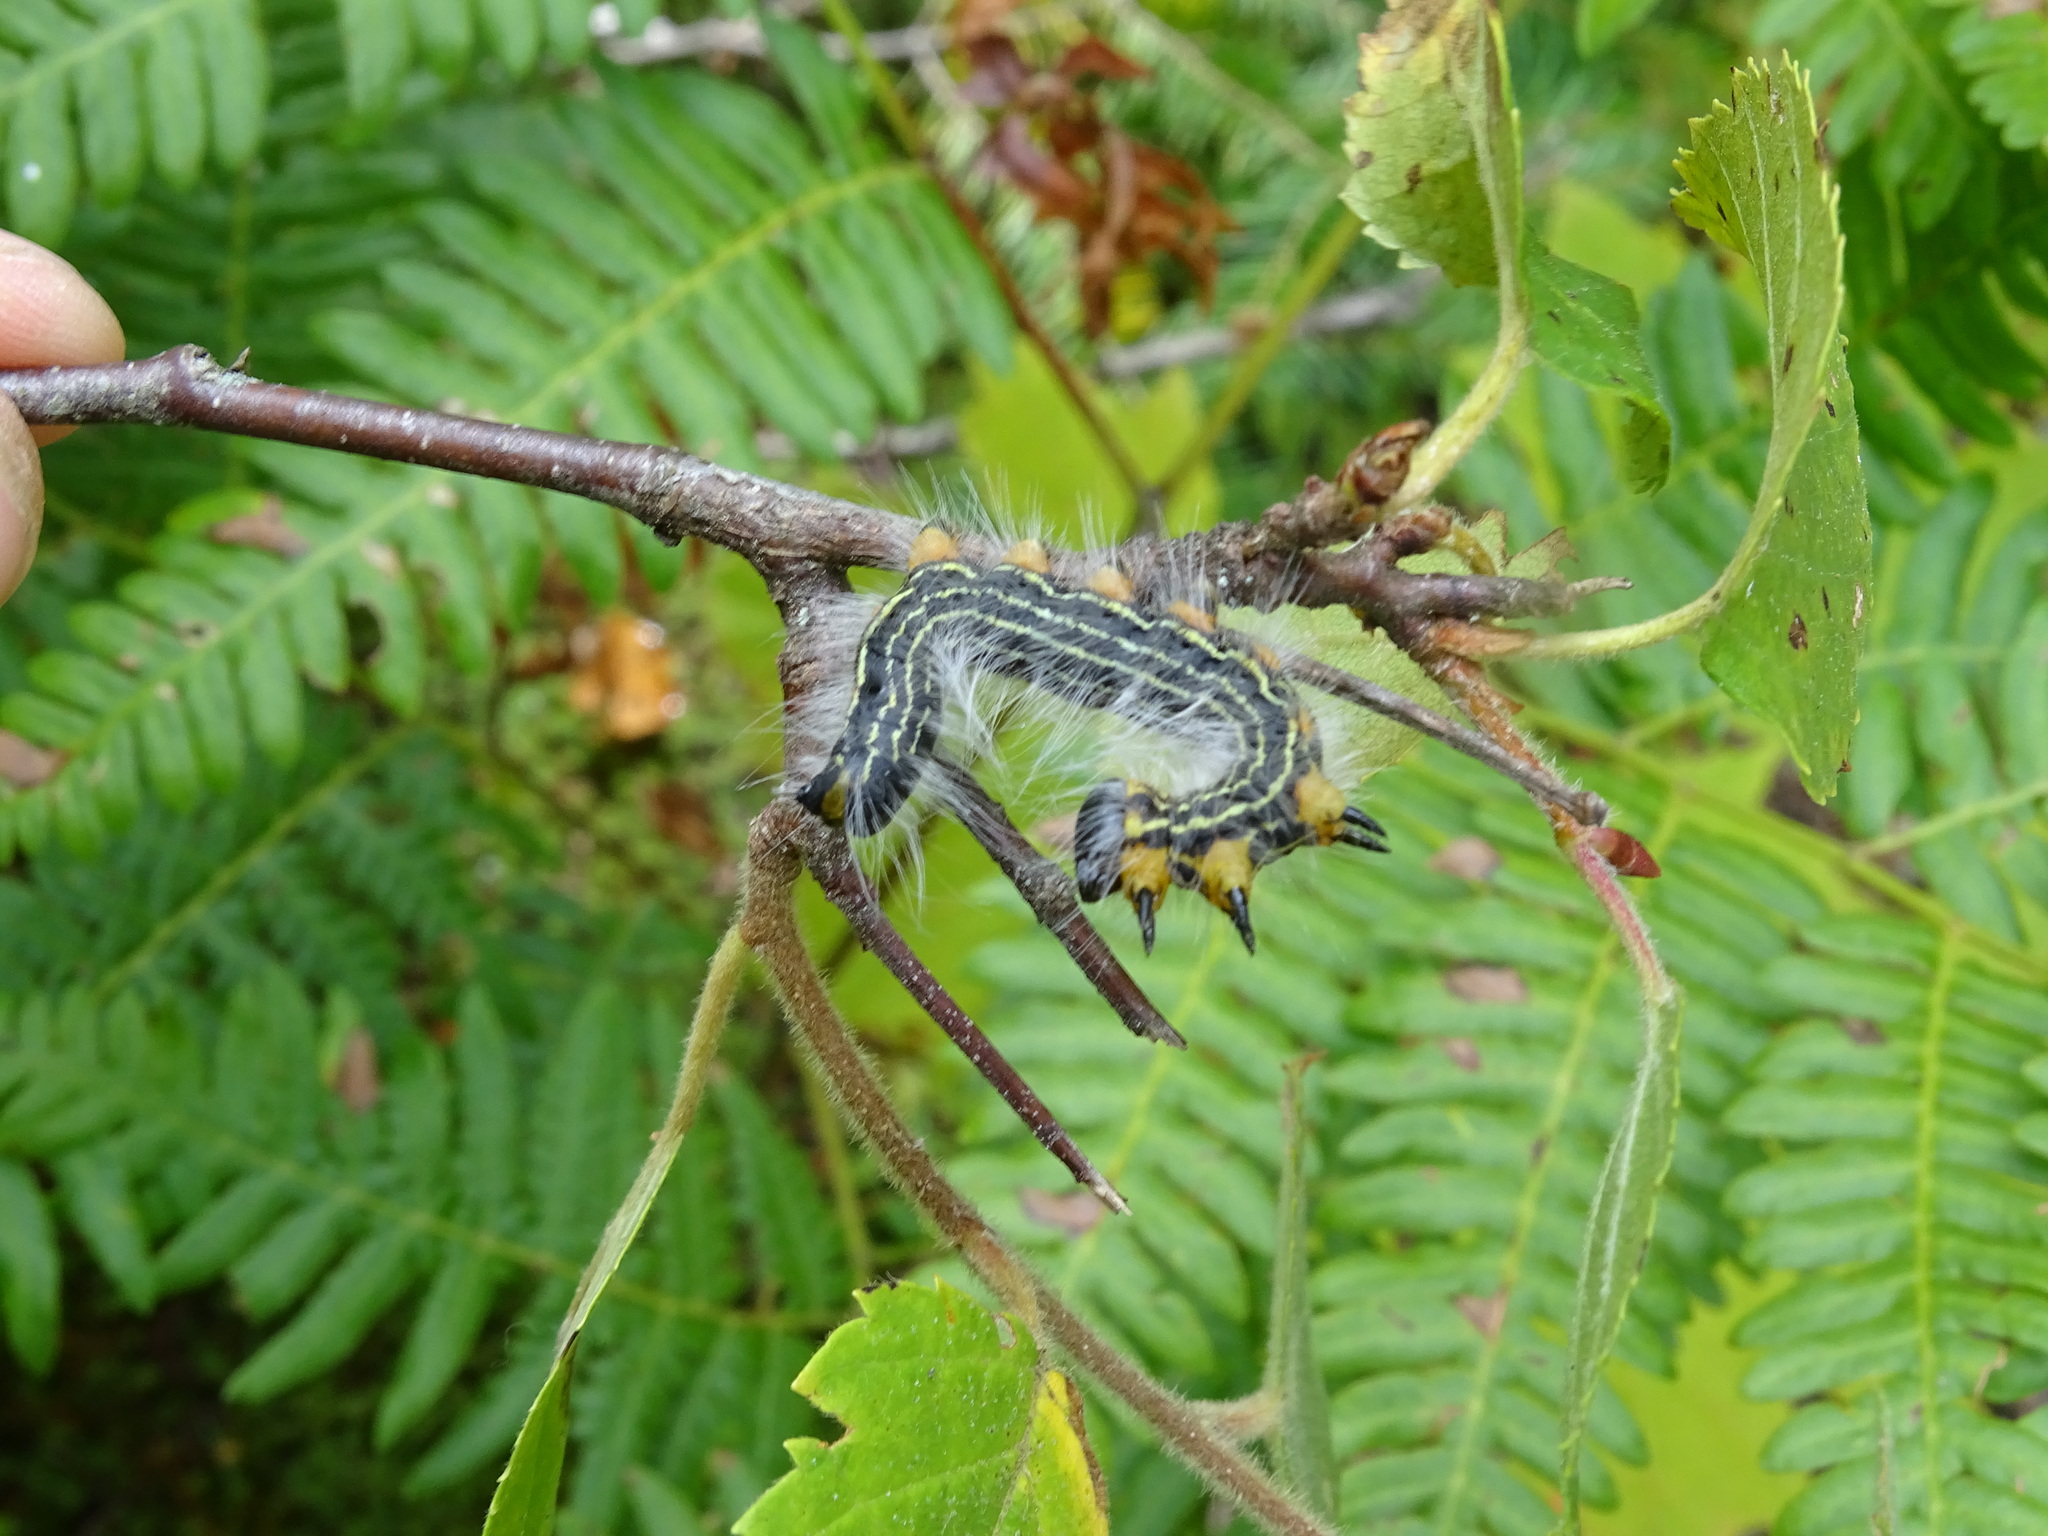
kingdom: Animalia
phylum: Arthropoda
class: Insecta
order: Lepidoptera
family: Notodontidae
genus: Datana
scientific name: Datana ministra
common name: Yellow-necked caterpillar moth
